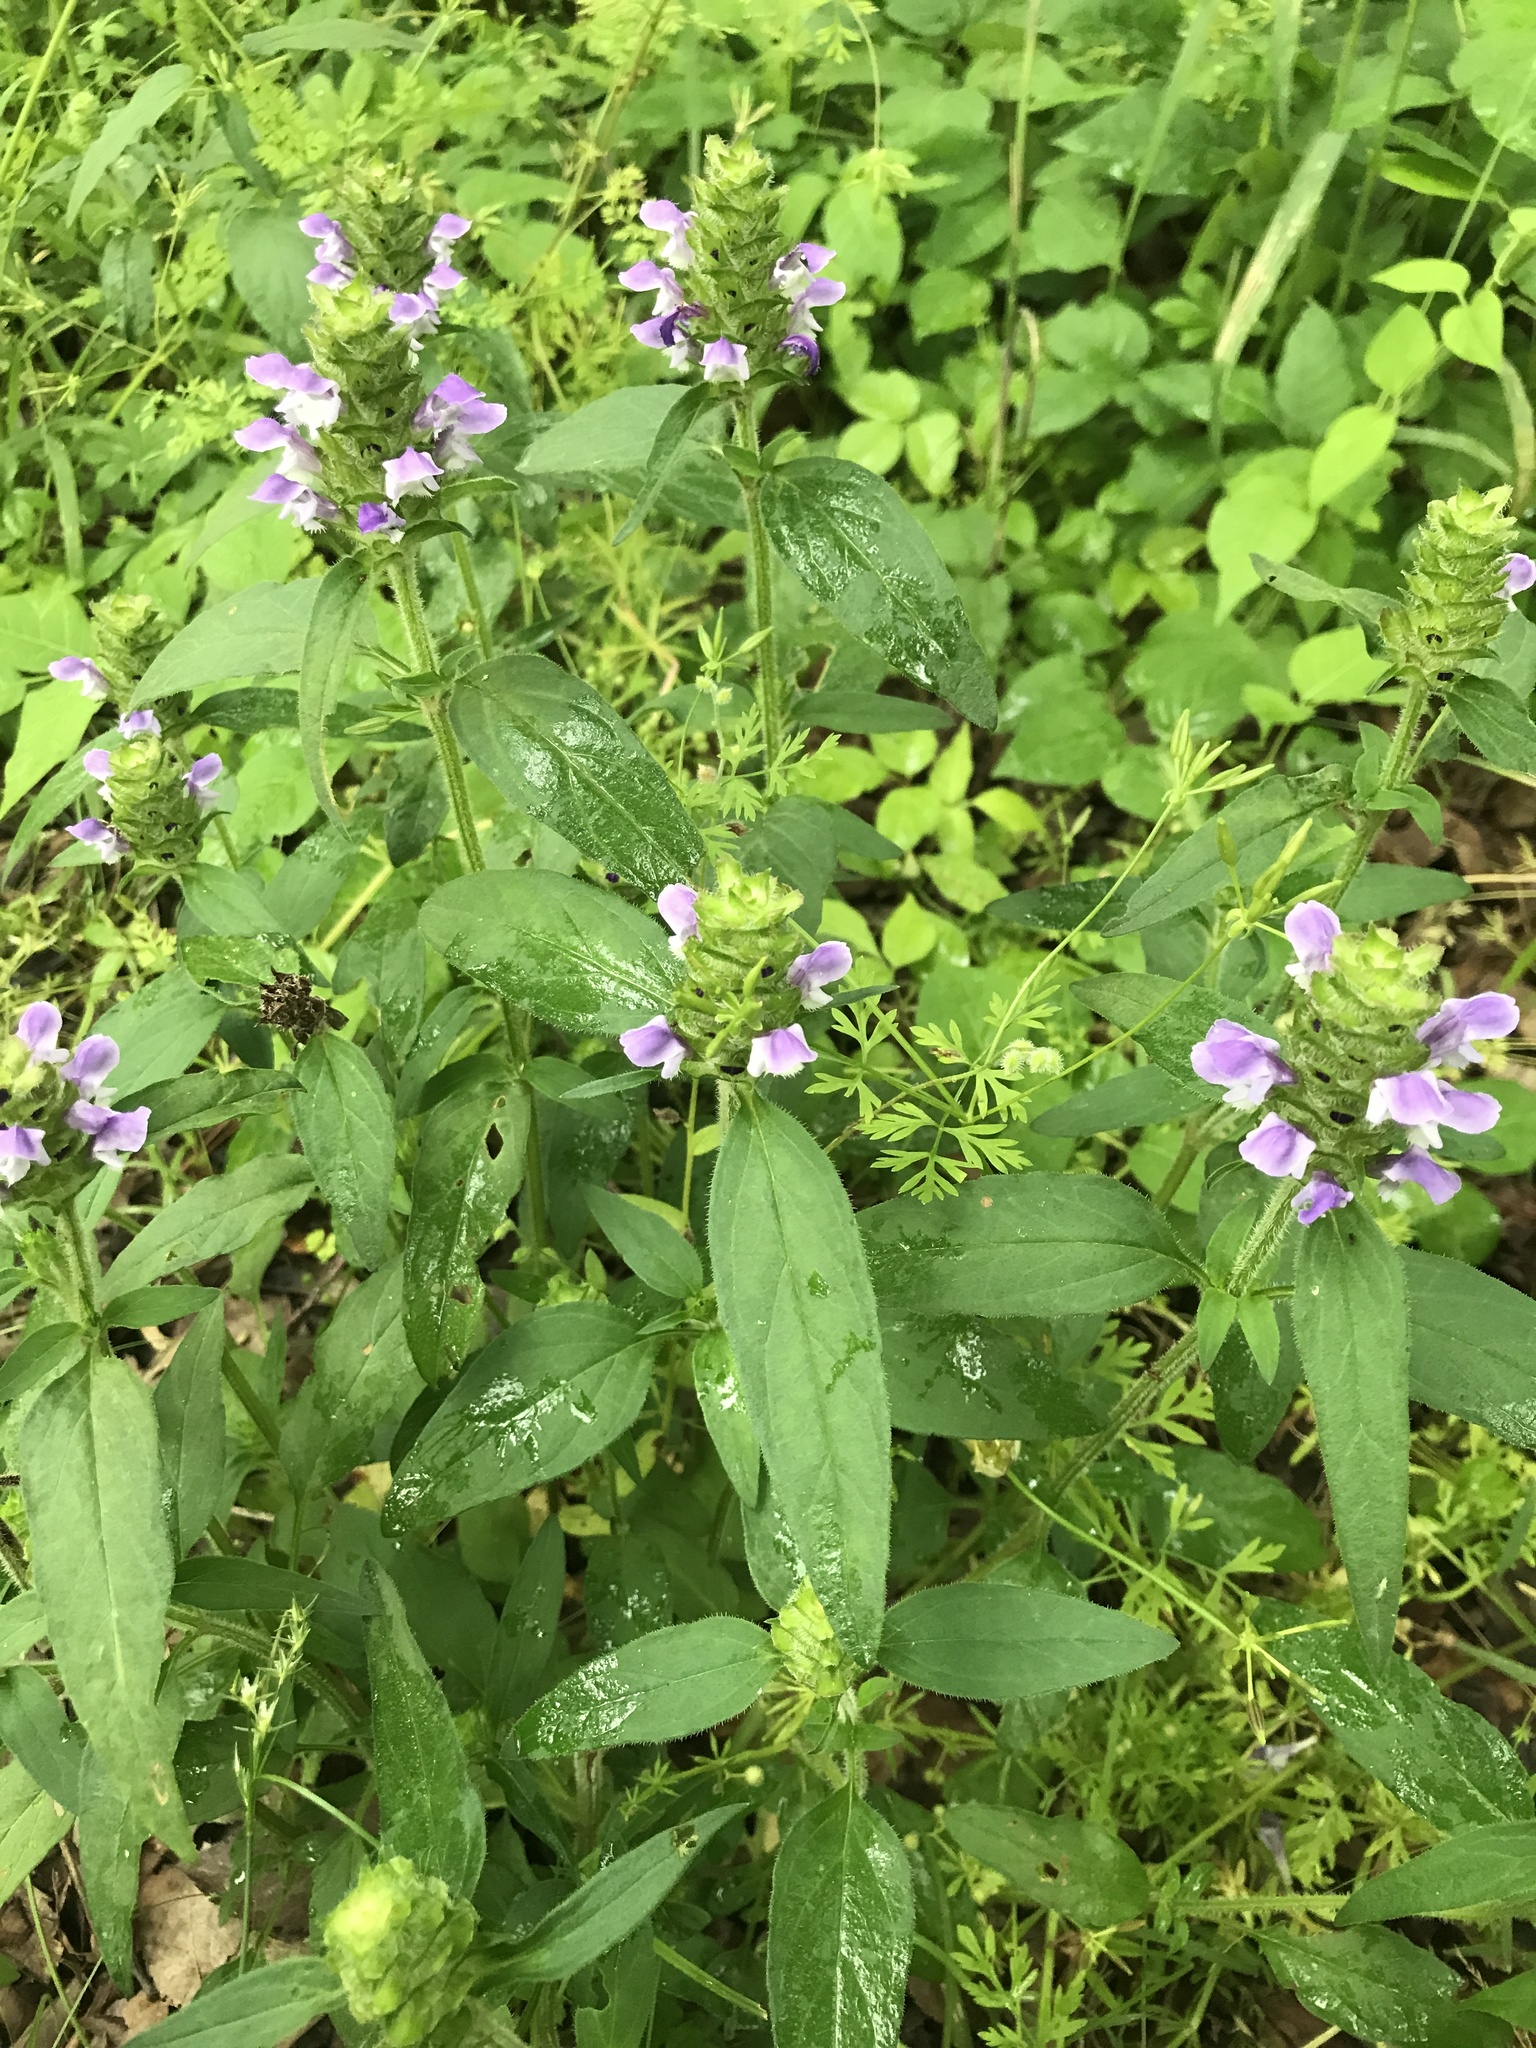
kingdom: Plantae
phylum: Tracheophyta
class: Magnoliopsida
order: Lamiales
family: Lamiaceae
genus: Prunella
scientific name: Prunella vulgaris
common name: Heal-all
